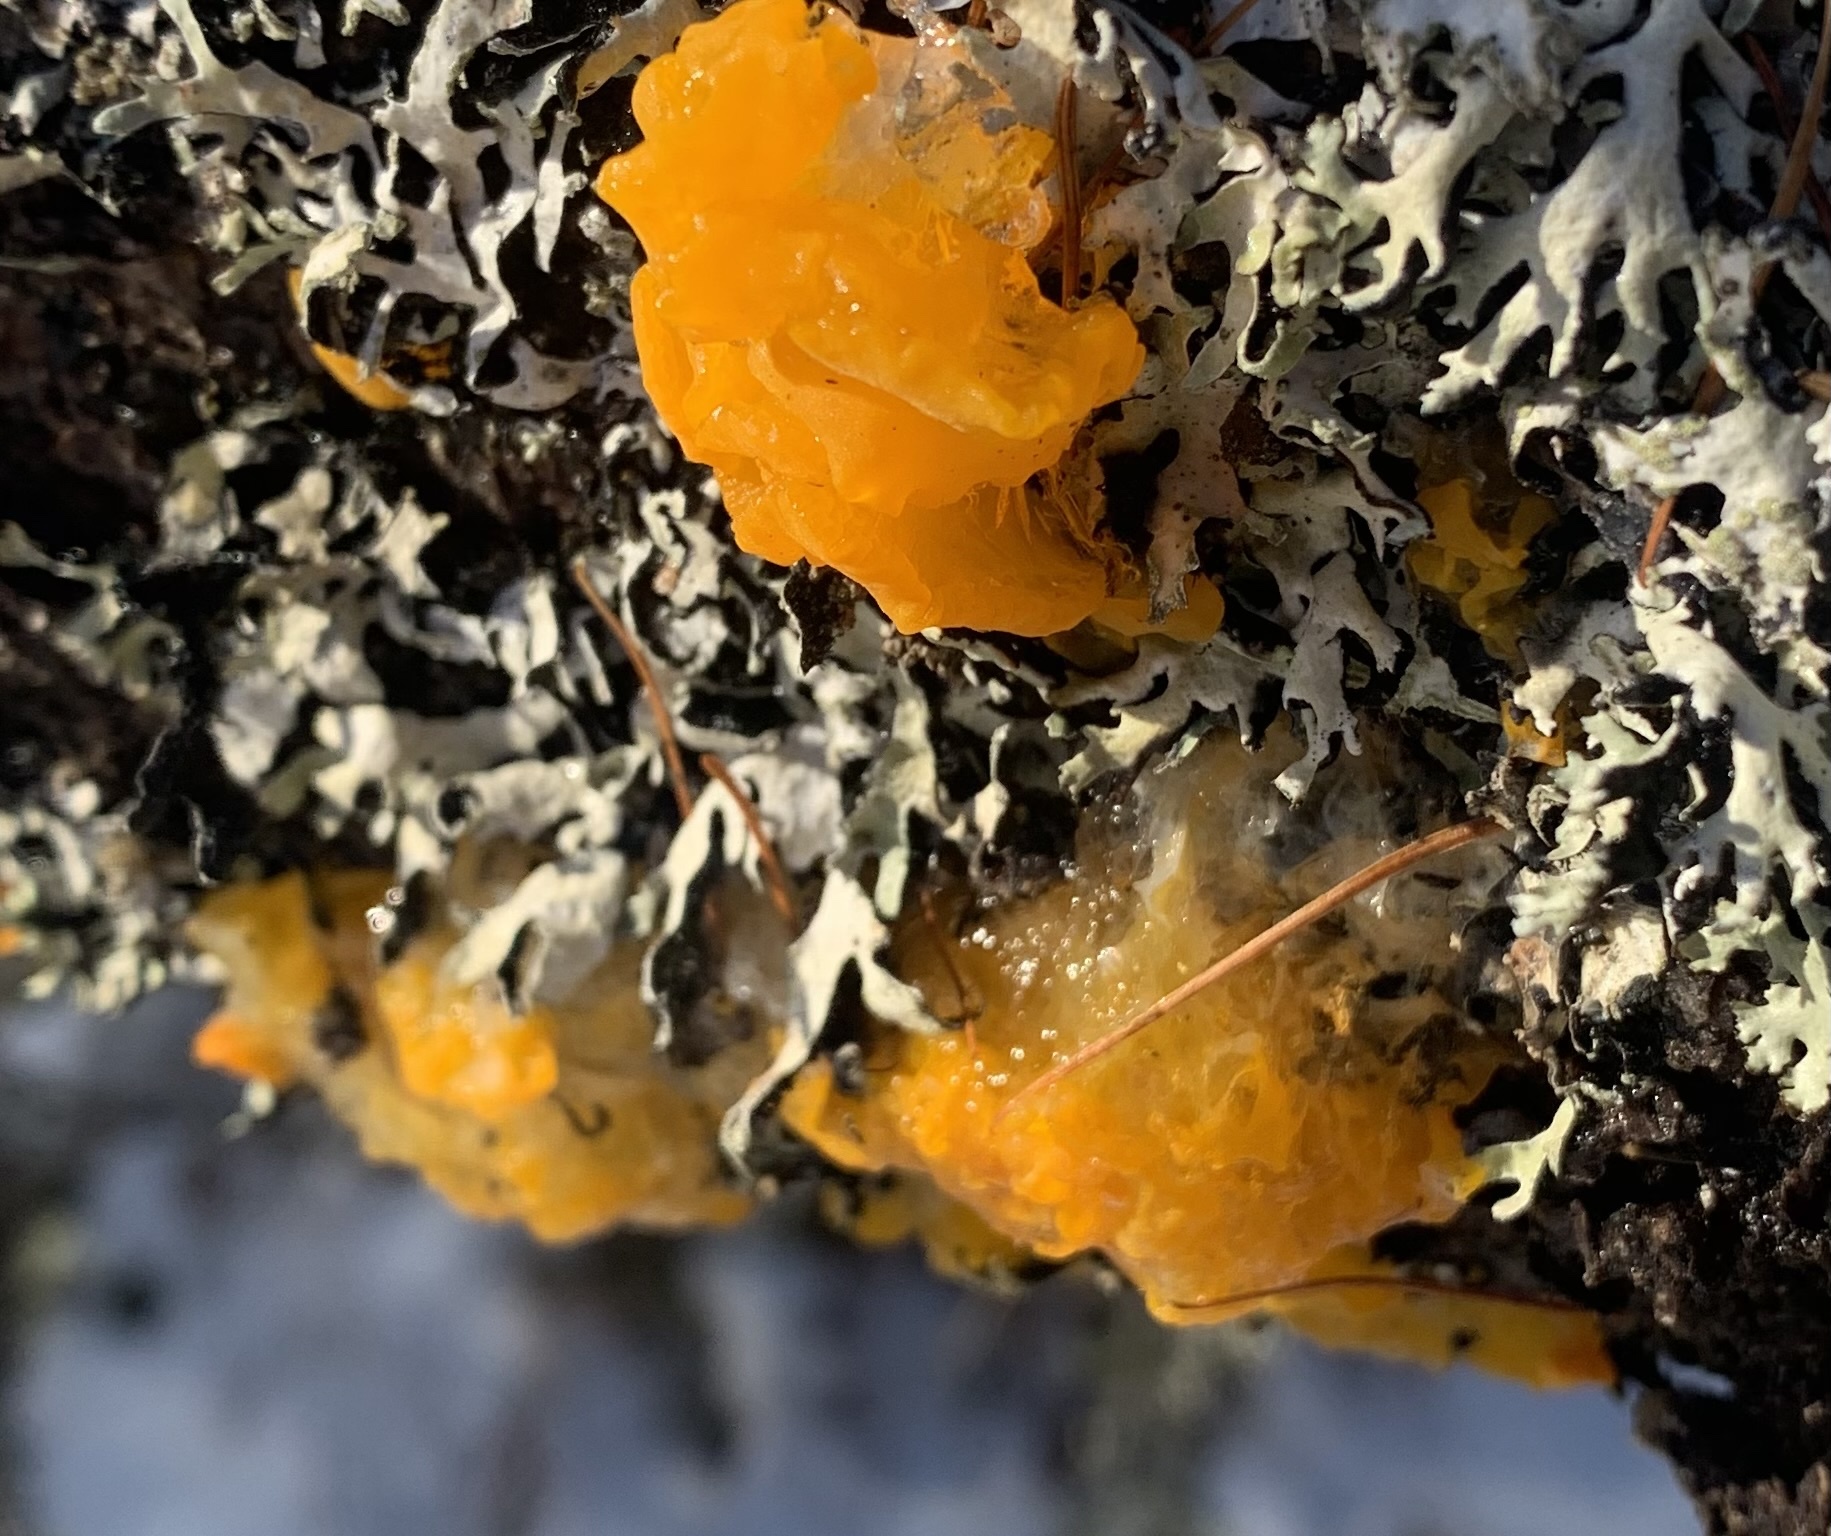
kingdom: Fungi
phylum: Basidiomycota
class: Dacrymycetes
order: Dacrymycetales
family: Dacrymycetaceae
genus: Dacrymyces
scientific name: Dacrymyces chrysospermus
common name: Orange jelly spot
